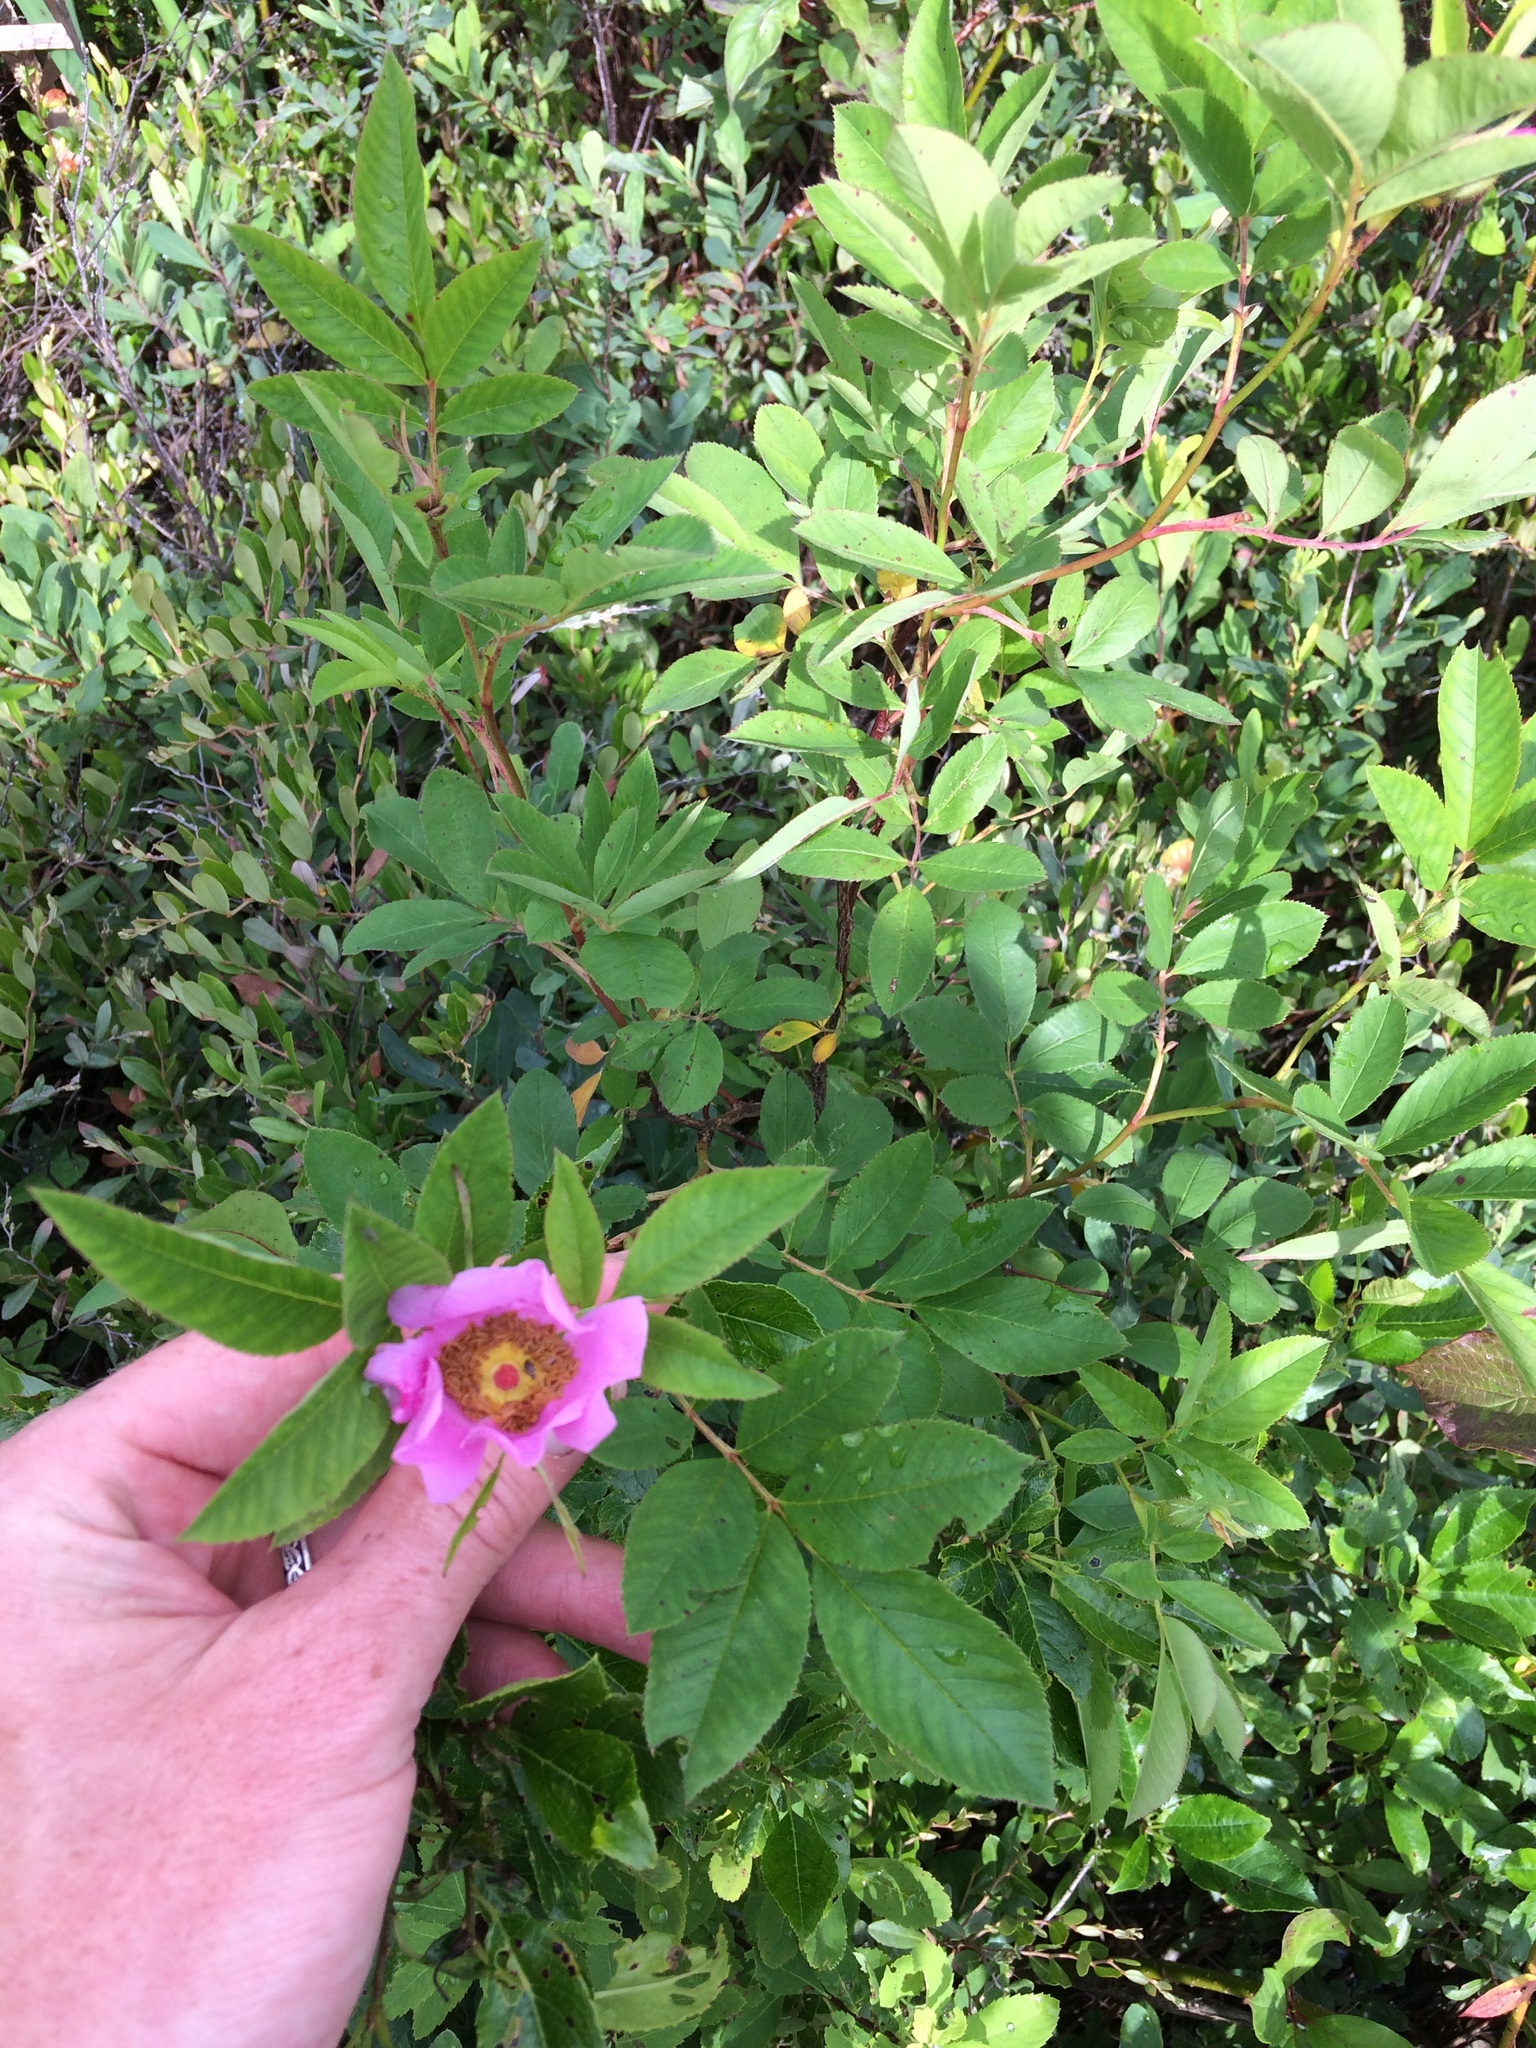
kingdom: Plantae
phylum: Tracheophyta
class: Magnoliopsida
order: Rosales
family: Rosaceae
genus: Rosa
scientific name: Rosa palustris
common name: Swamp rose
